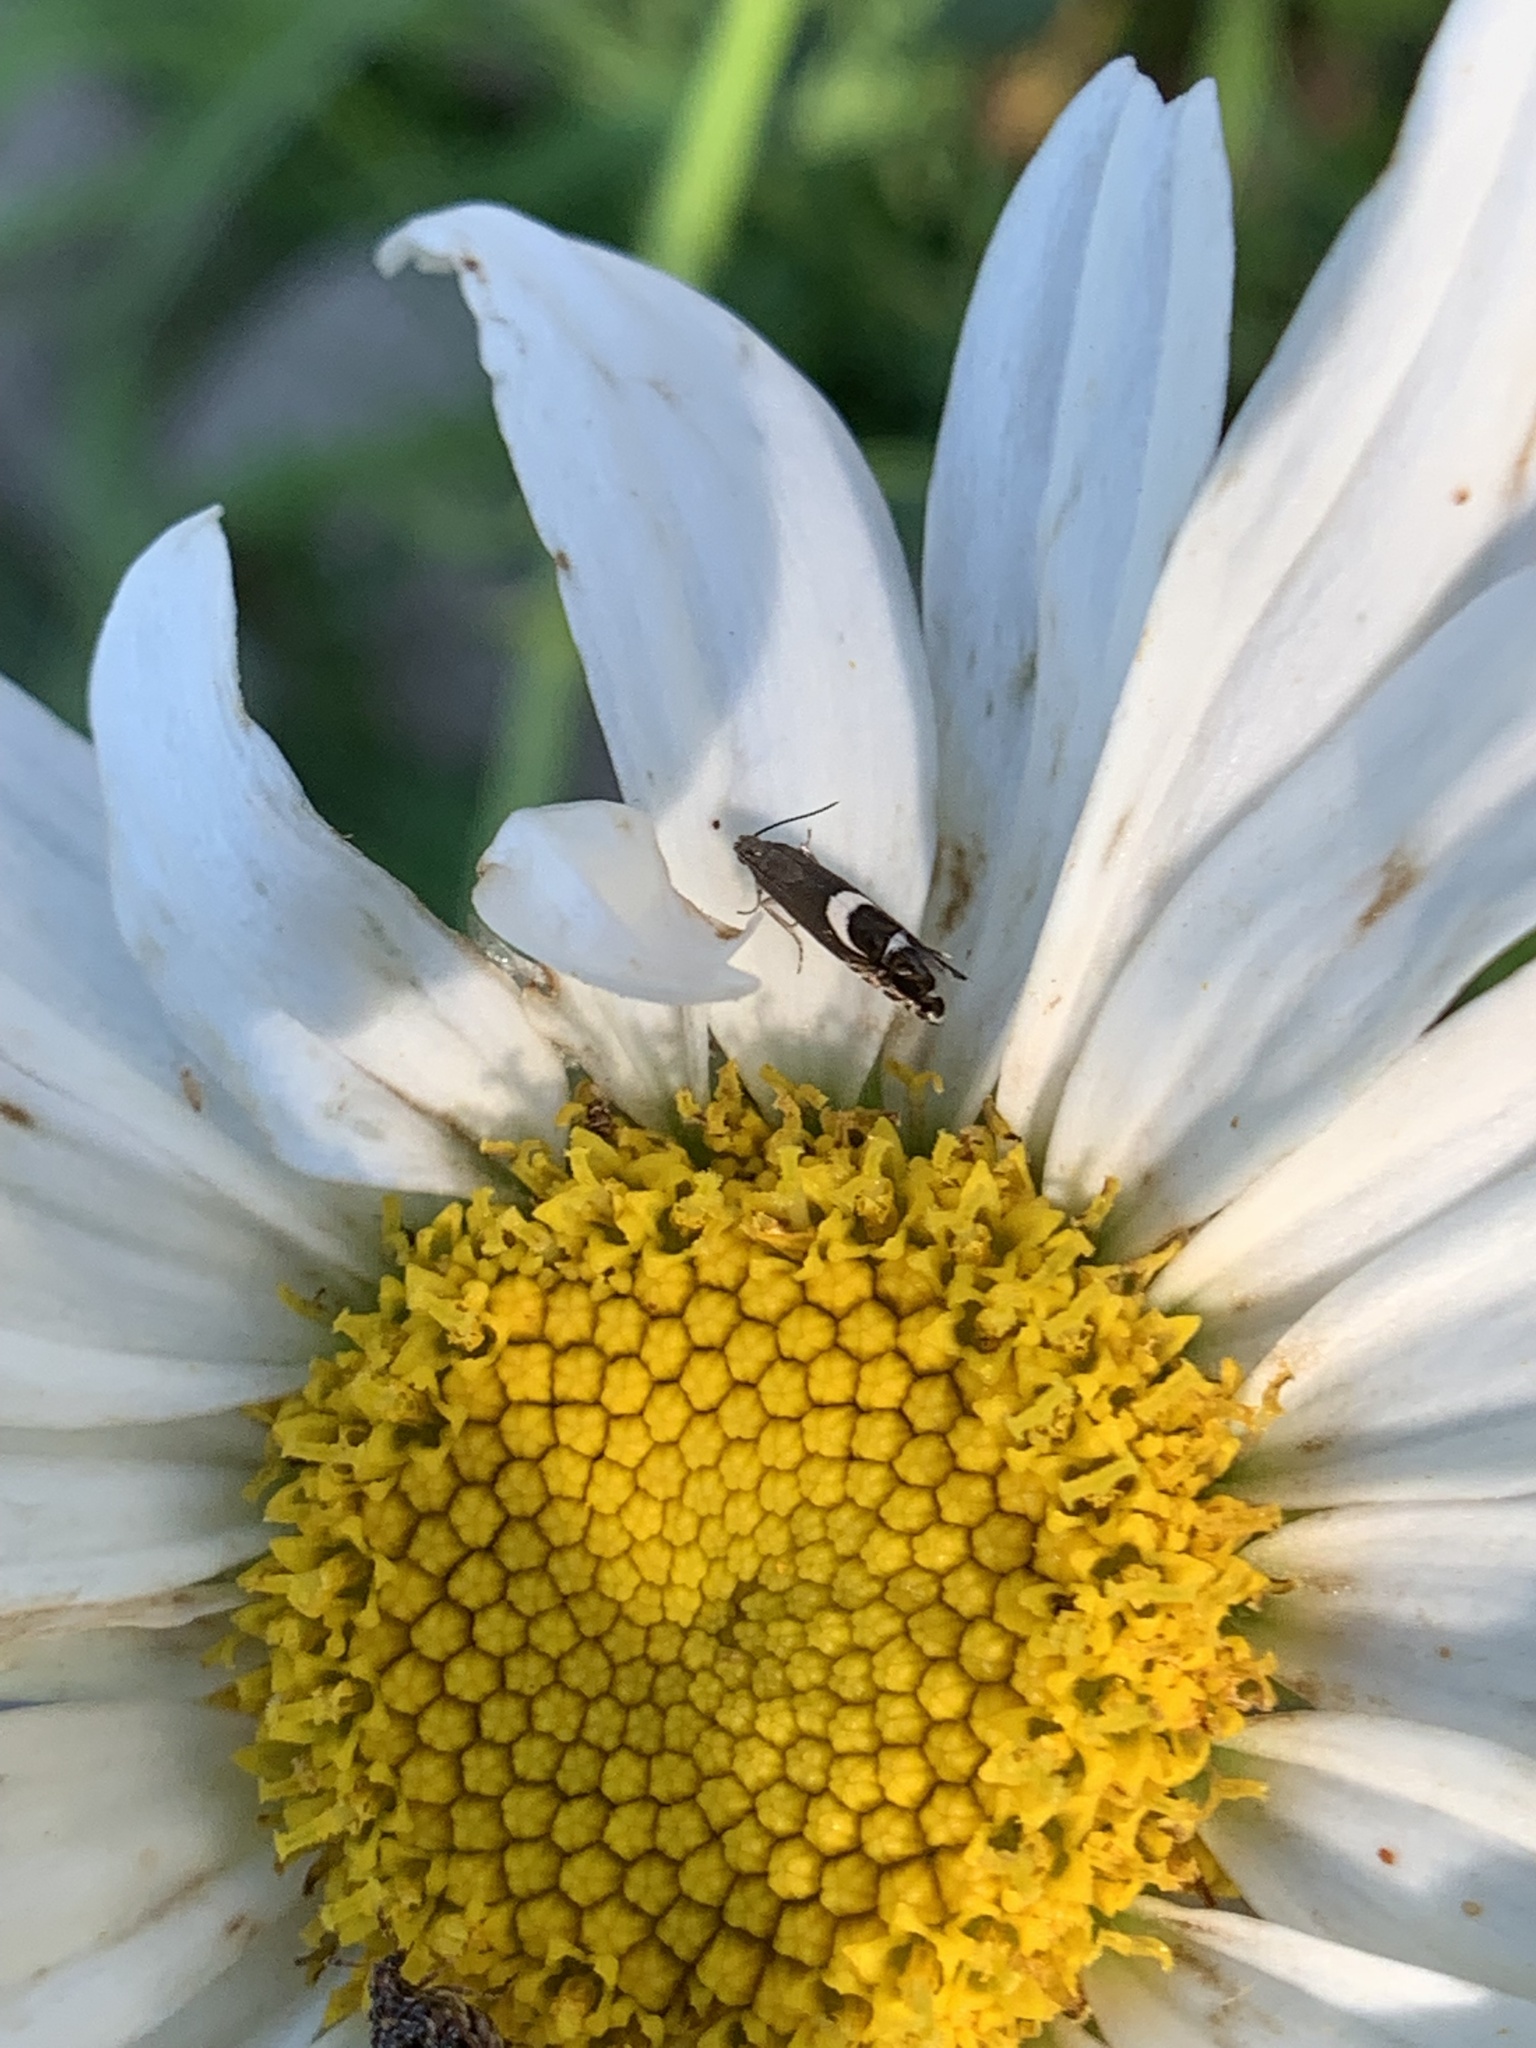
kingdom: Animalia
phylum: Arthropoda
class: Insecta
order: Lepidoptera
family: Glyphipterigidae
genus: Glyphipterix
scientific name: Glyphipterix Diploschizia impigritella
